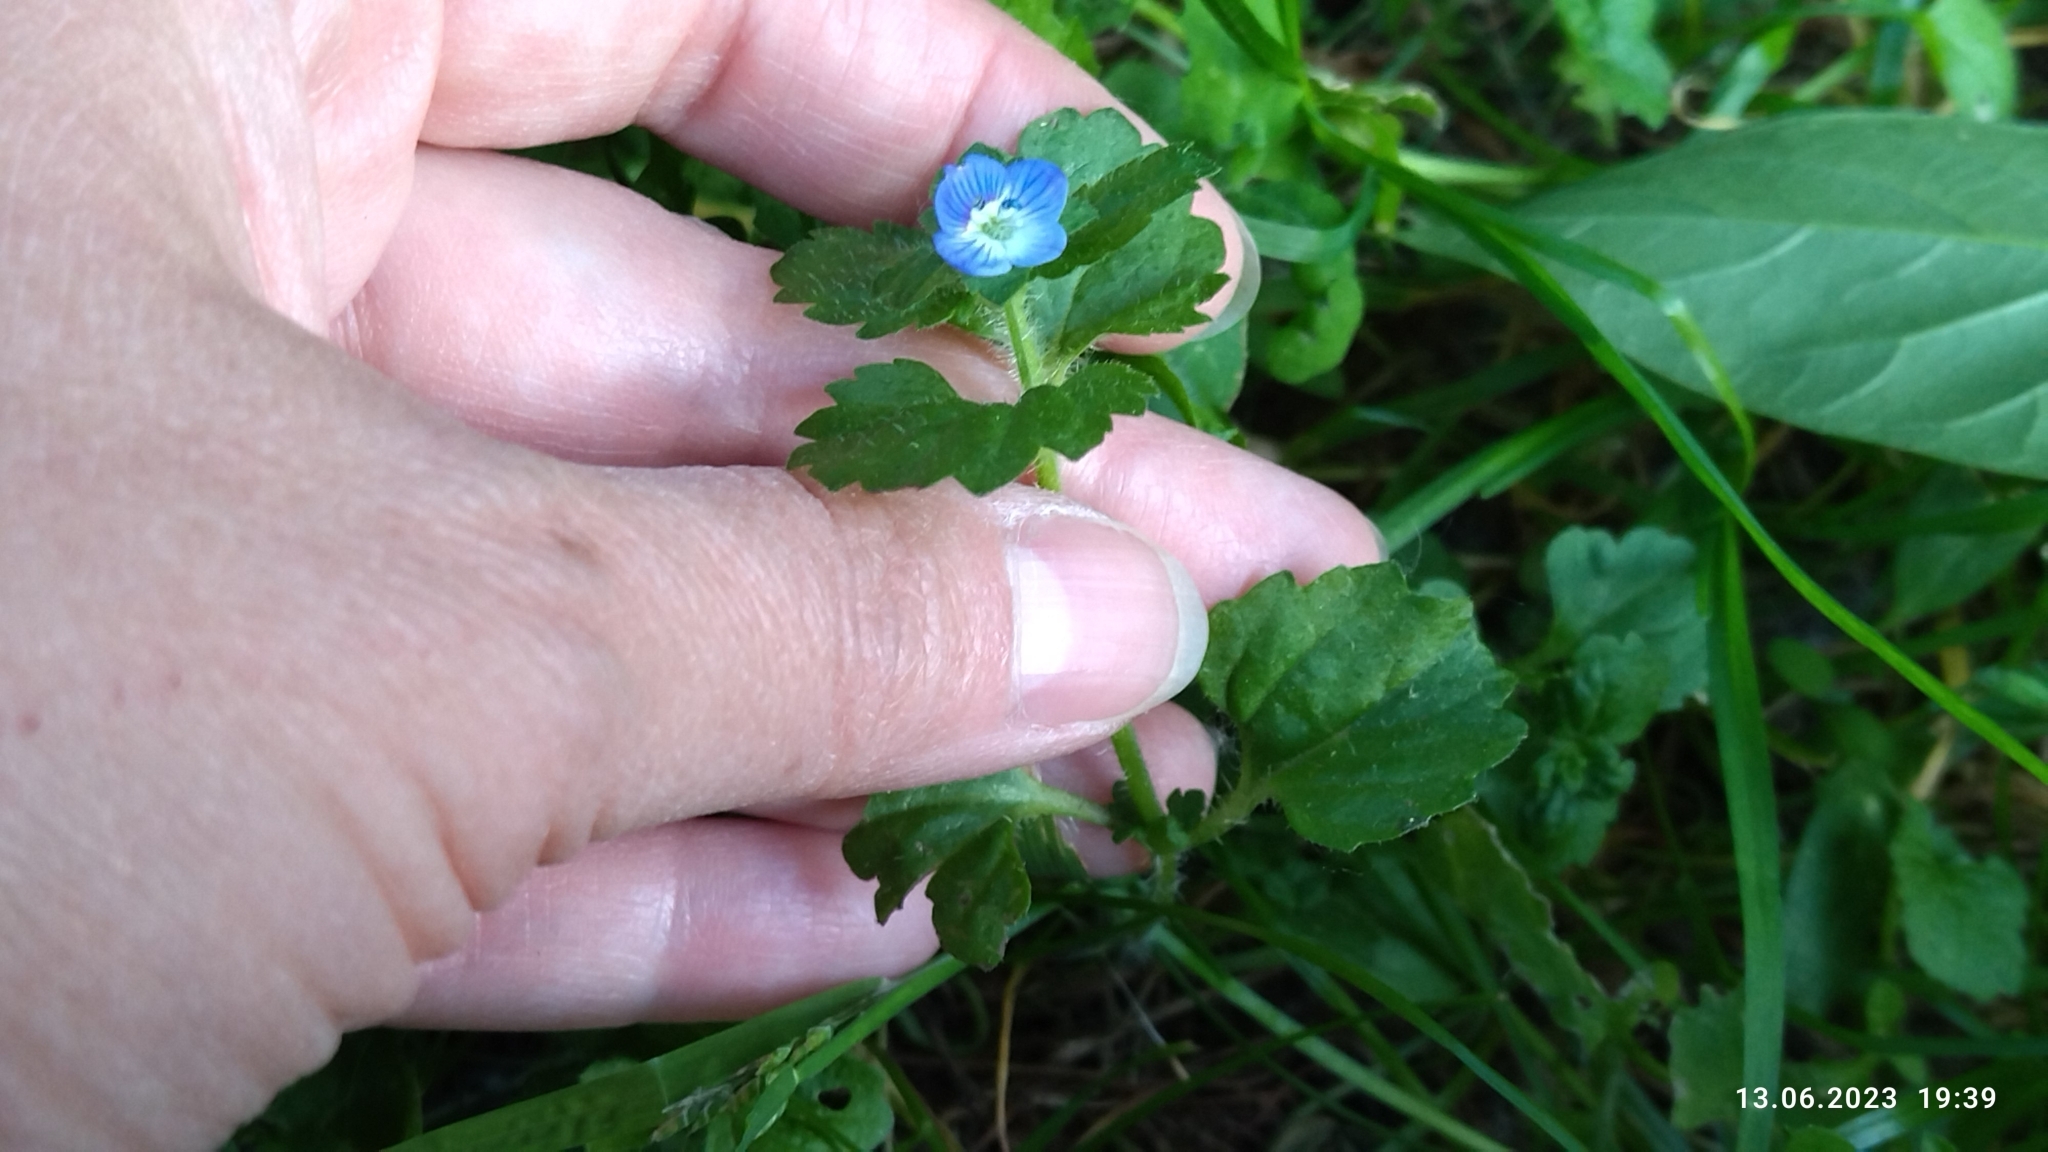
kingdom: Plantae
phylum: Tracheophyta
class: Magnoliopsida
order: Lamiales
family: Plantaginaceae
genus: Veronica
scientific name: Veronica persica
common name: Common field-speedwell
